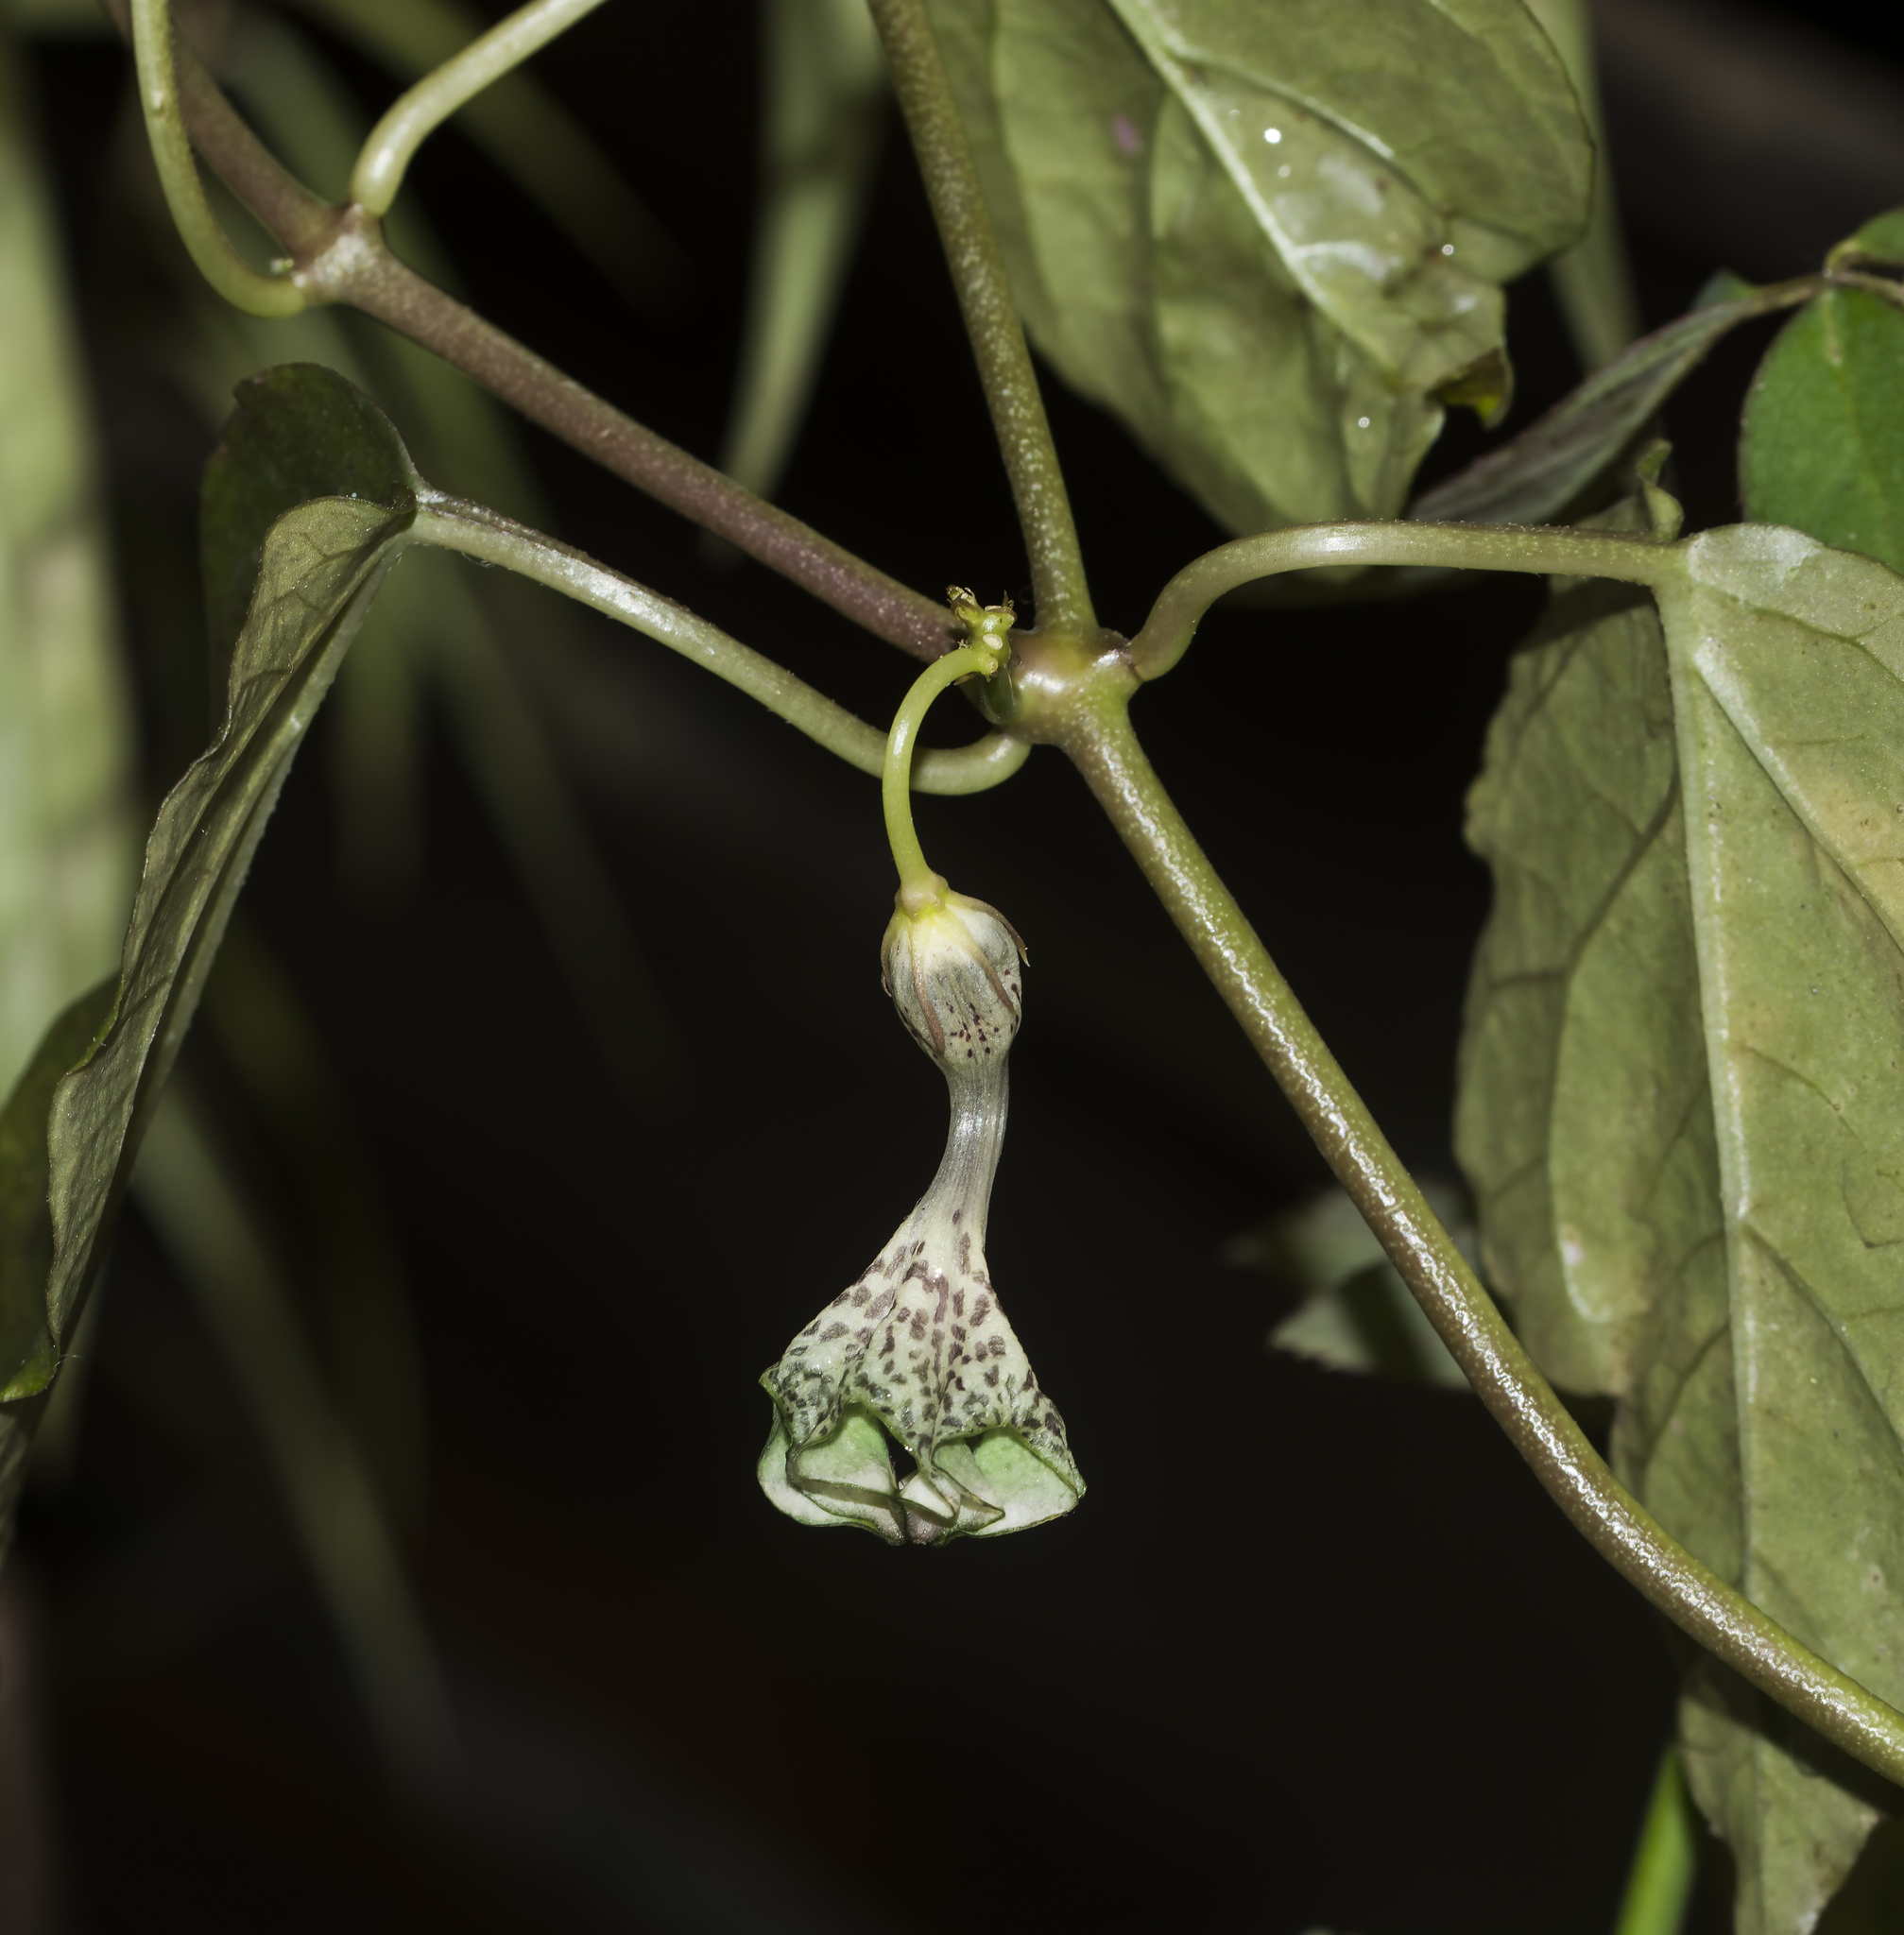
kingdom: Plantae
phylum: Tracheophyta
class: Magnoliopsida
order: Gentianales
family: Apocynaceae
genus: Ceropegia
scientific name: Ceropegia elegans
